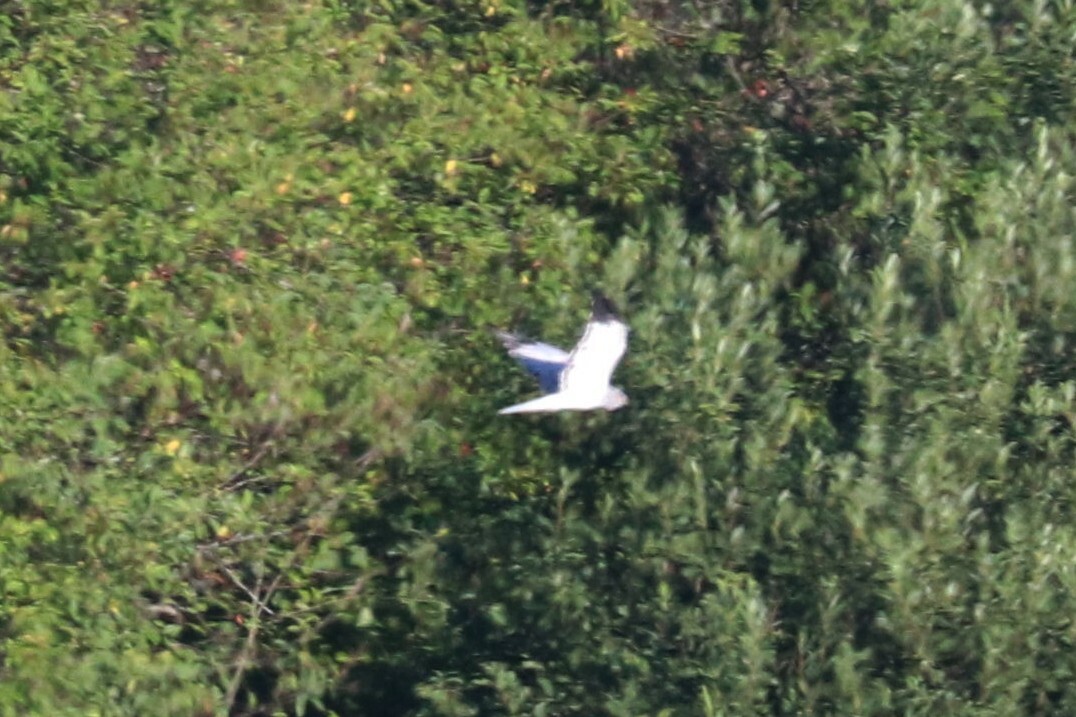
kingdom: Animalia
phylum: Chordata
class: Aves
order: Accipitriformes
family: Accipitridae
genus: Circus
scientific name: Circus cyaneus
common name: Hen harrier
